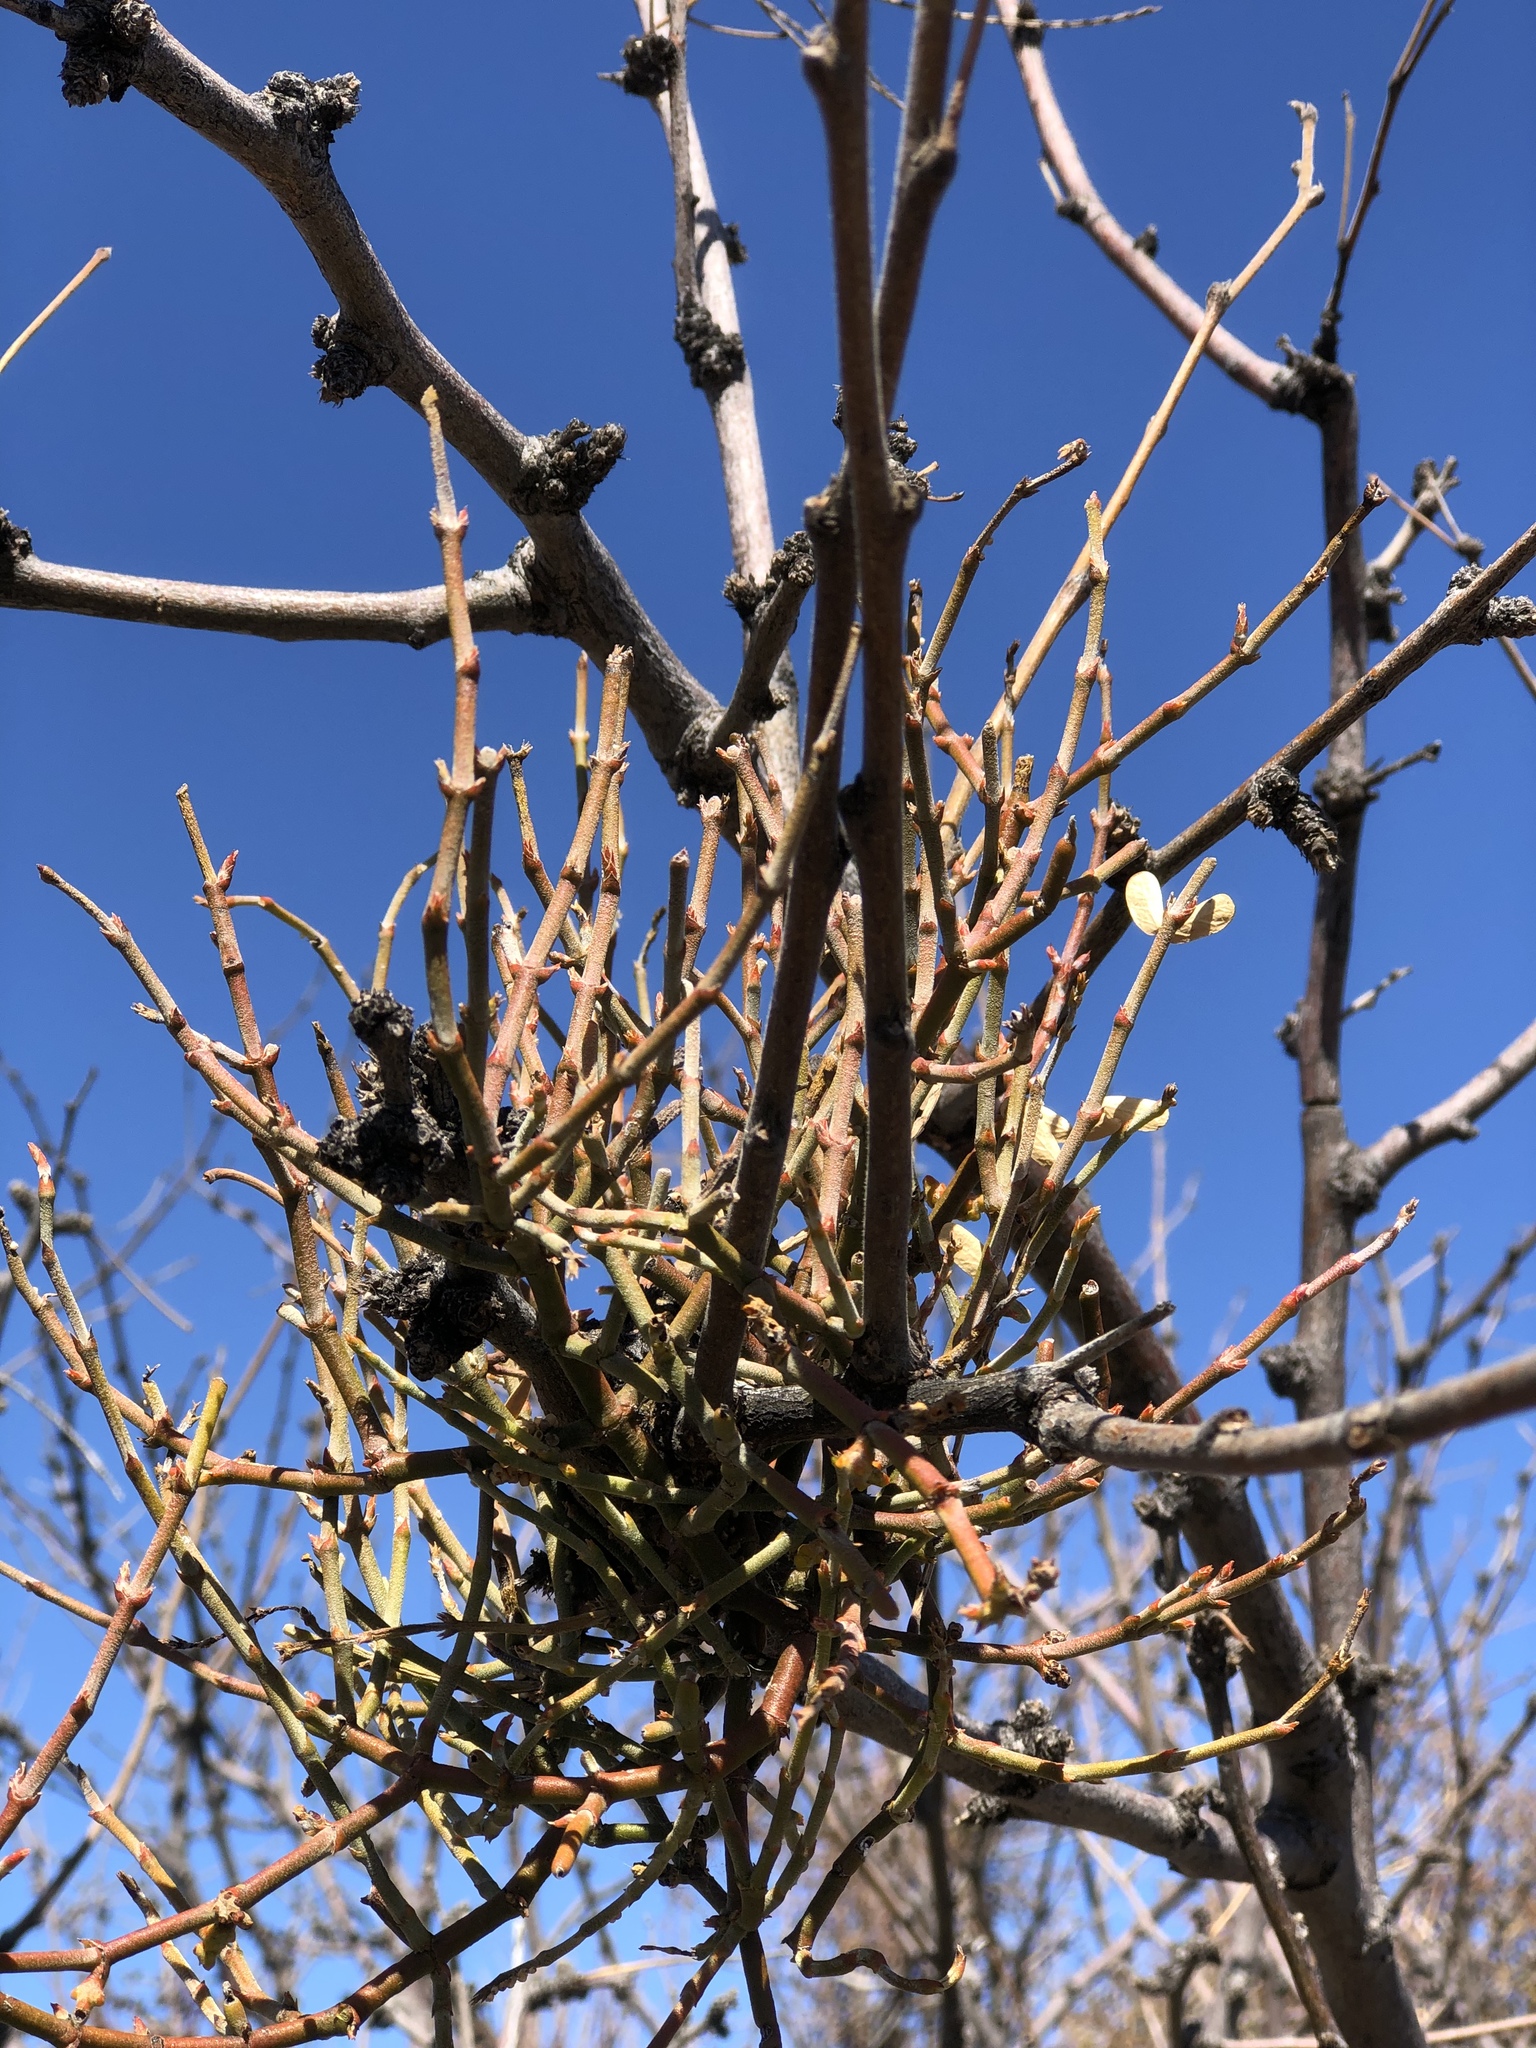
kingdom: Plantae
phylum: Tracheophyta
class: Magnoliopsida
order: Santalales
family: Viscaceae
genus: Phoradendron
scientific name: Phoradendron californicum
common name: Acacia mistletoe
